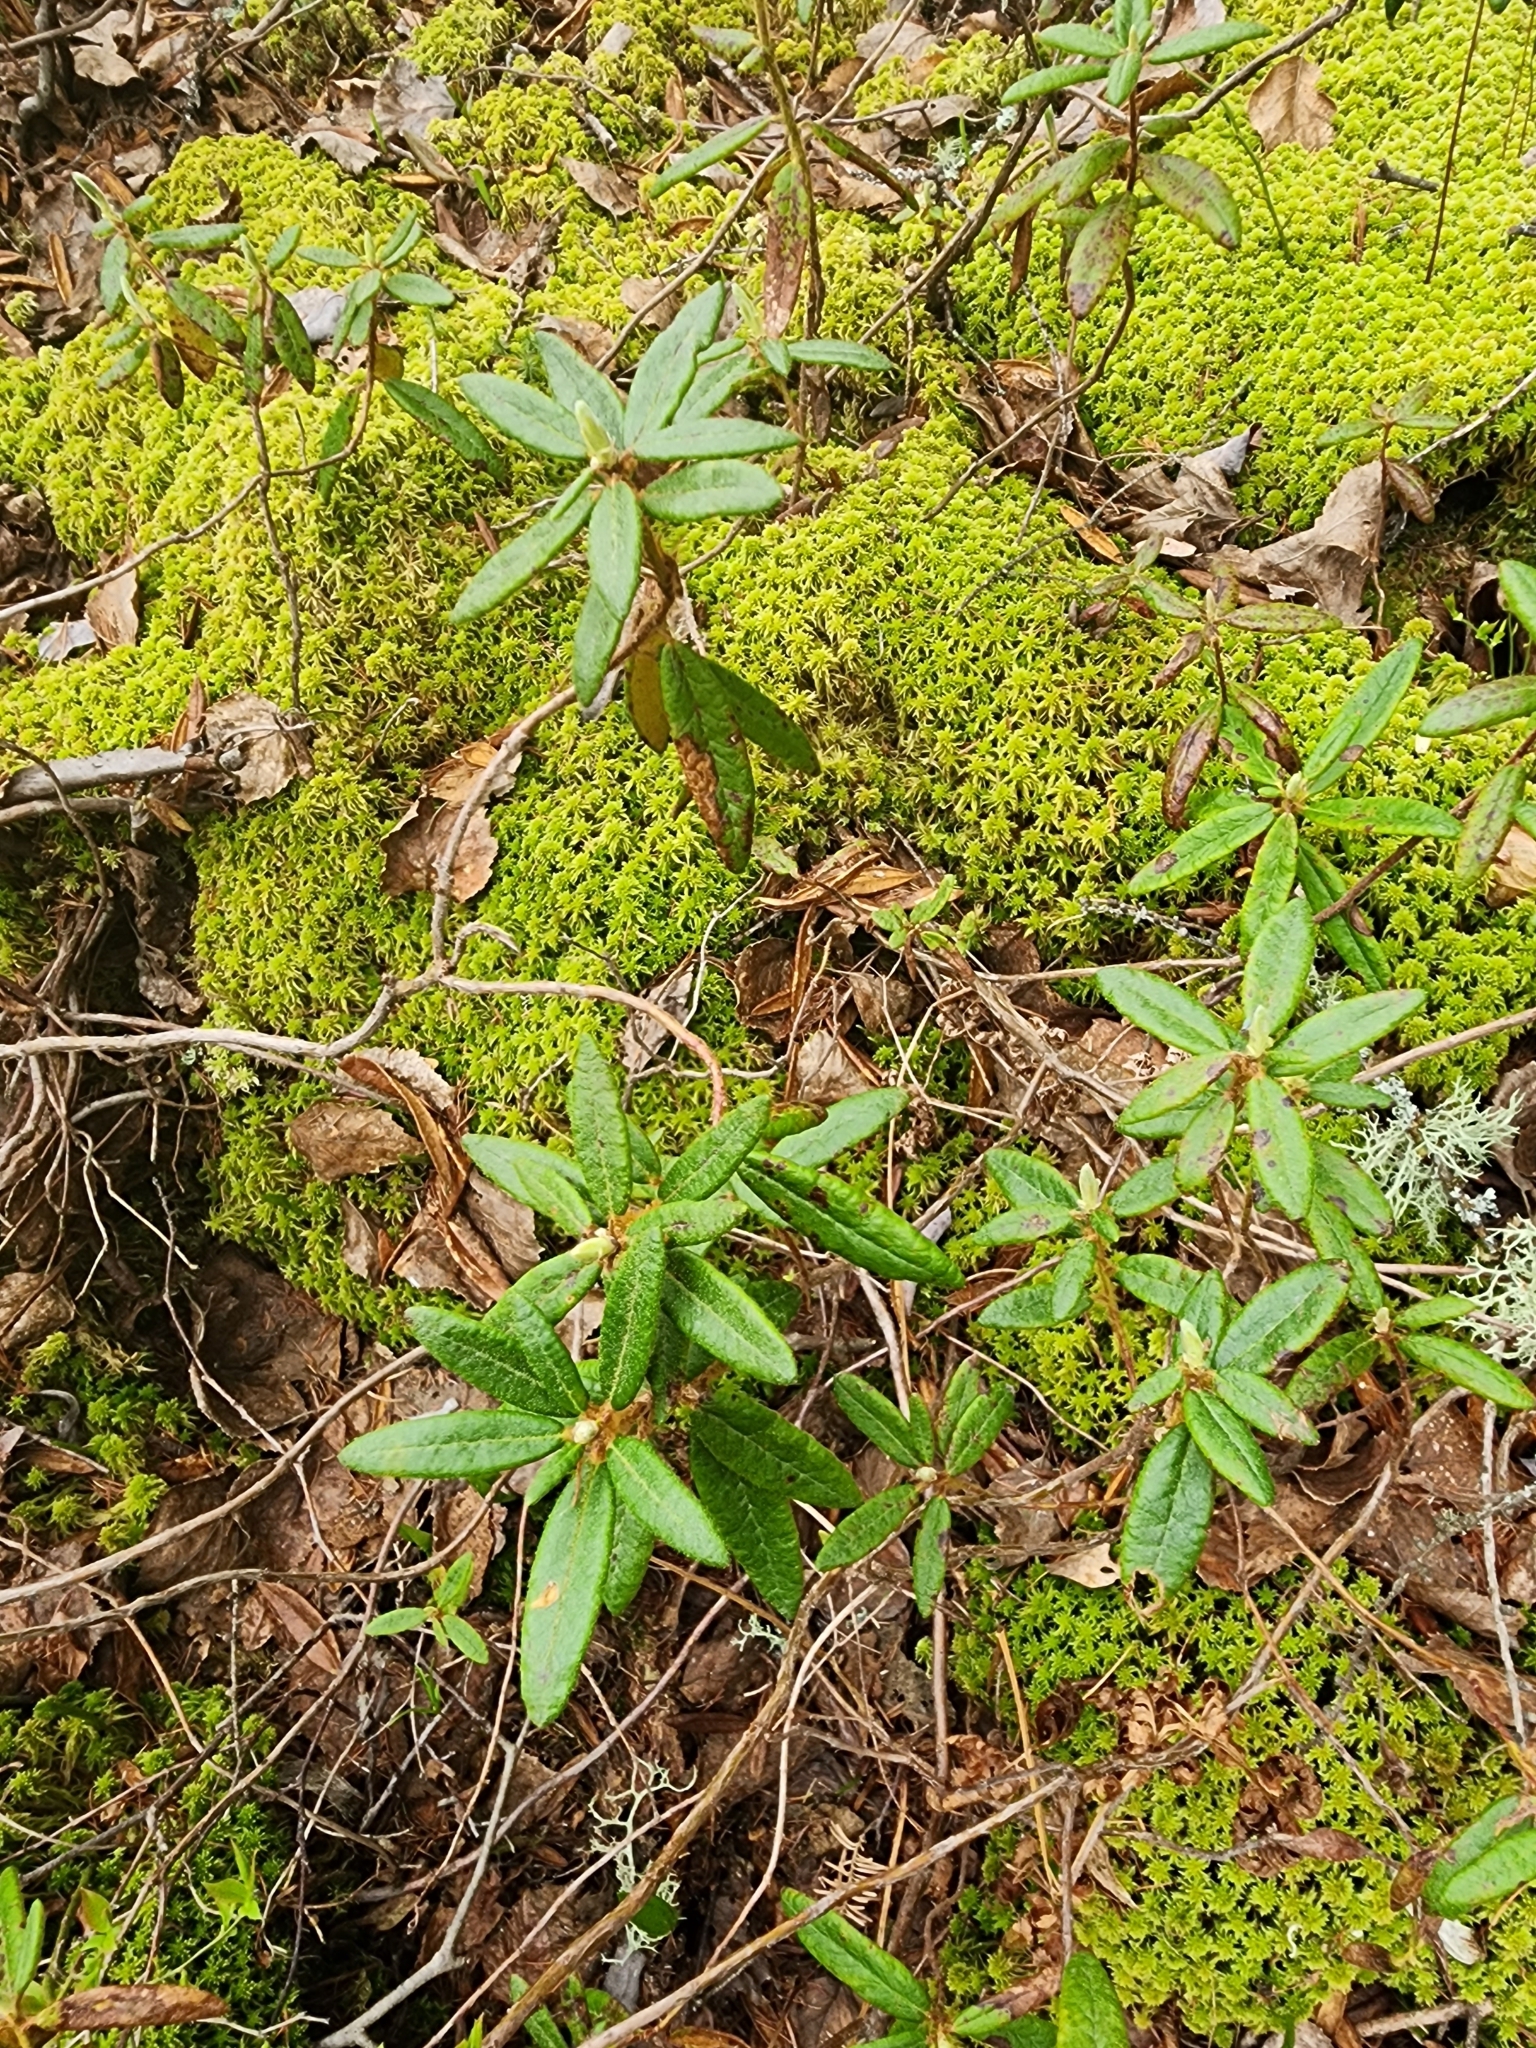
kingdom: Plantae
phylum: Tracheophyta
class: Magnoliopsida
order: Ericales
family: Ericaceae
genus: Rhododendron
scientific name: Rhododendron groenlandicum
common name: Bog labrador tea
